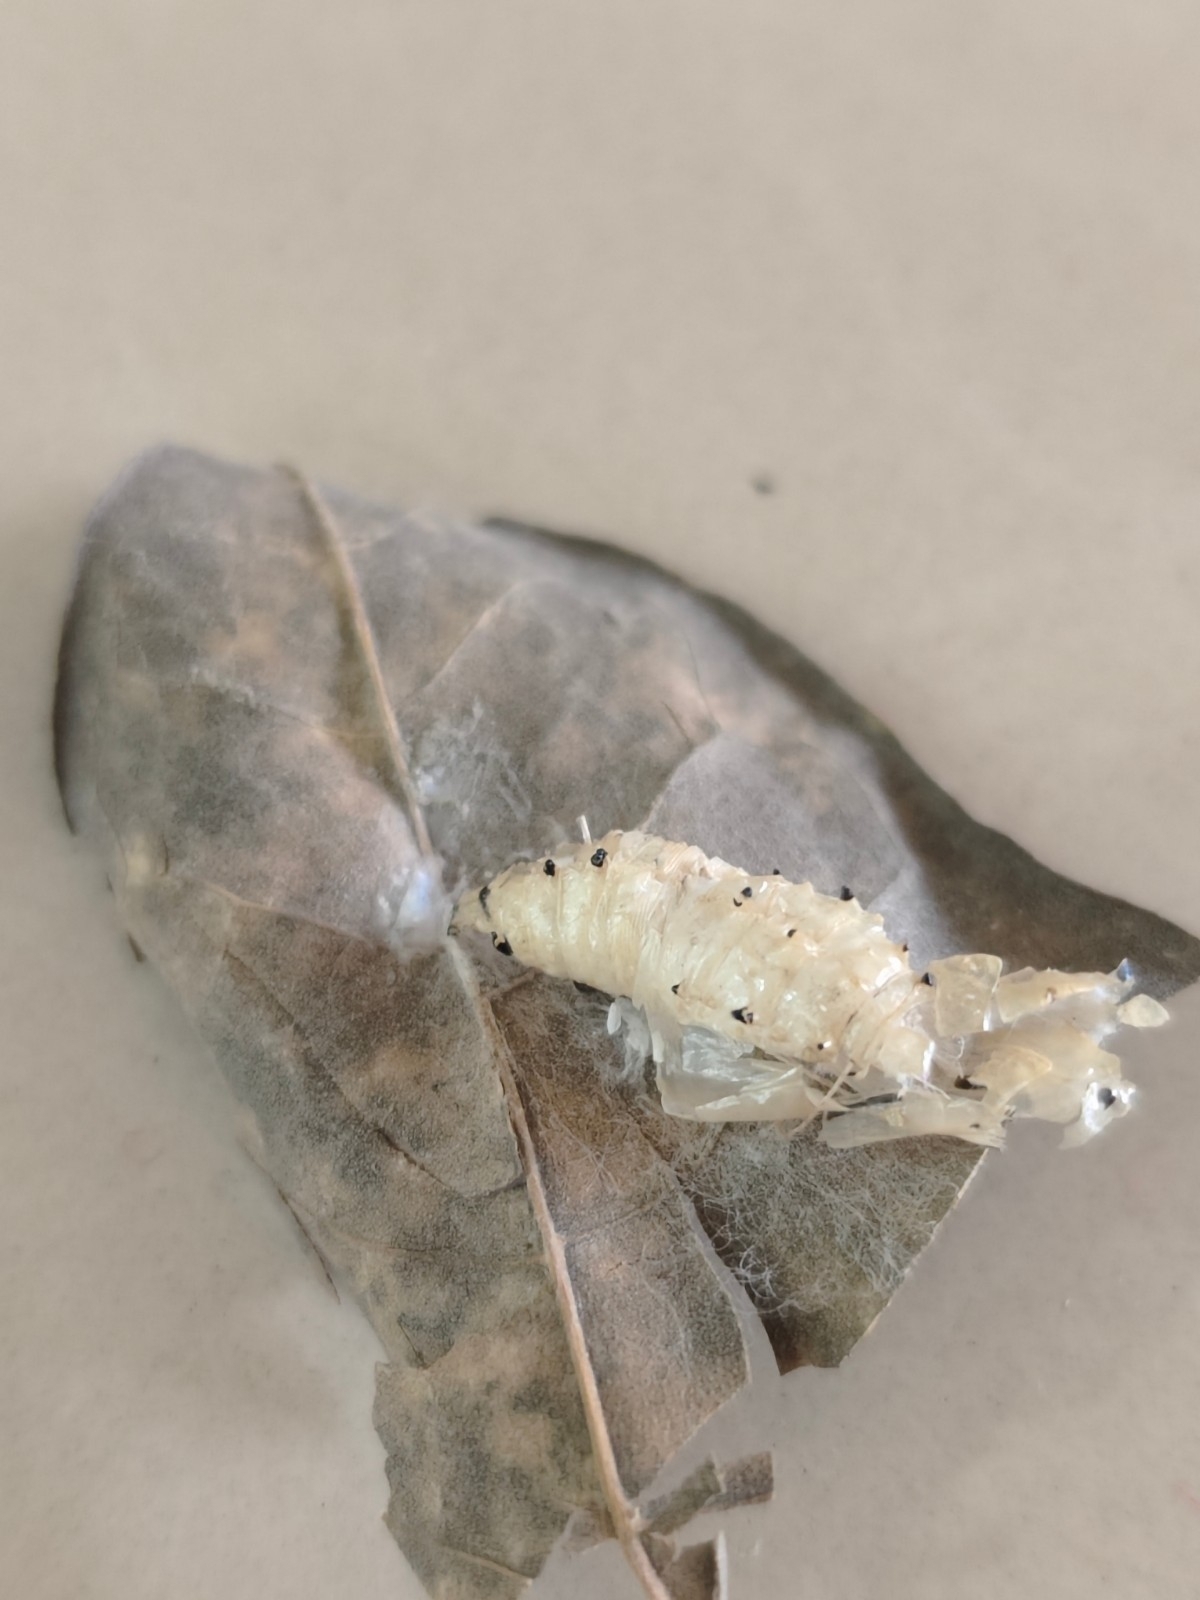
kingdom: Animalia
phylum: Arthropoda
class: Insecta
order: Lepidoptera
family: Pieridae
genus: Delias
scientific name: Delias eucharis
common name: Common jezebel
